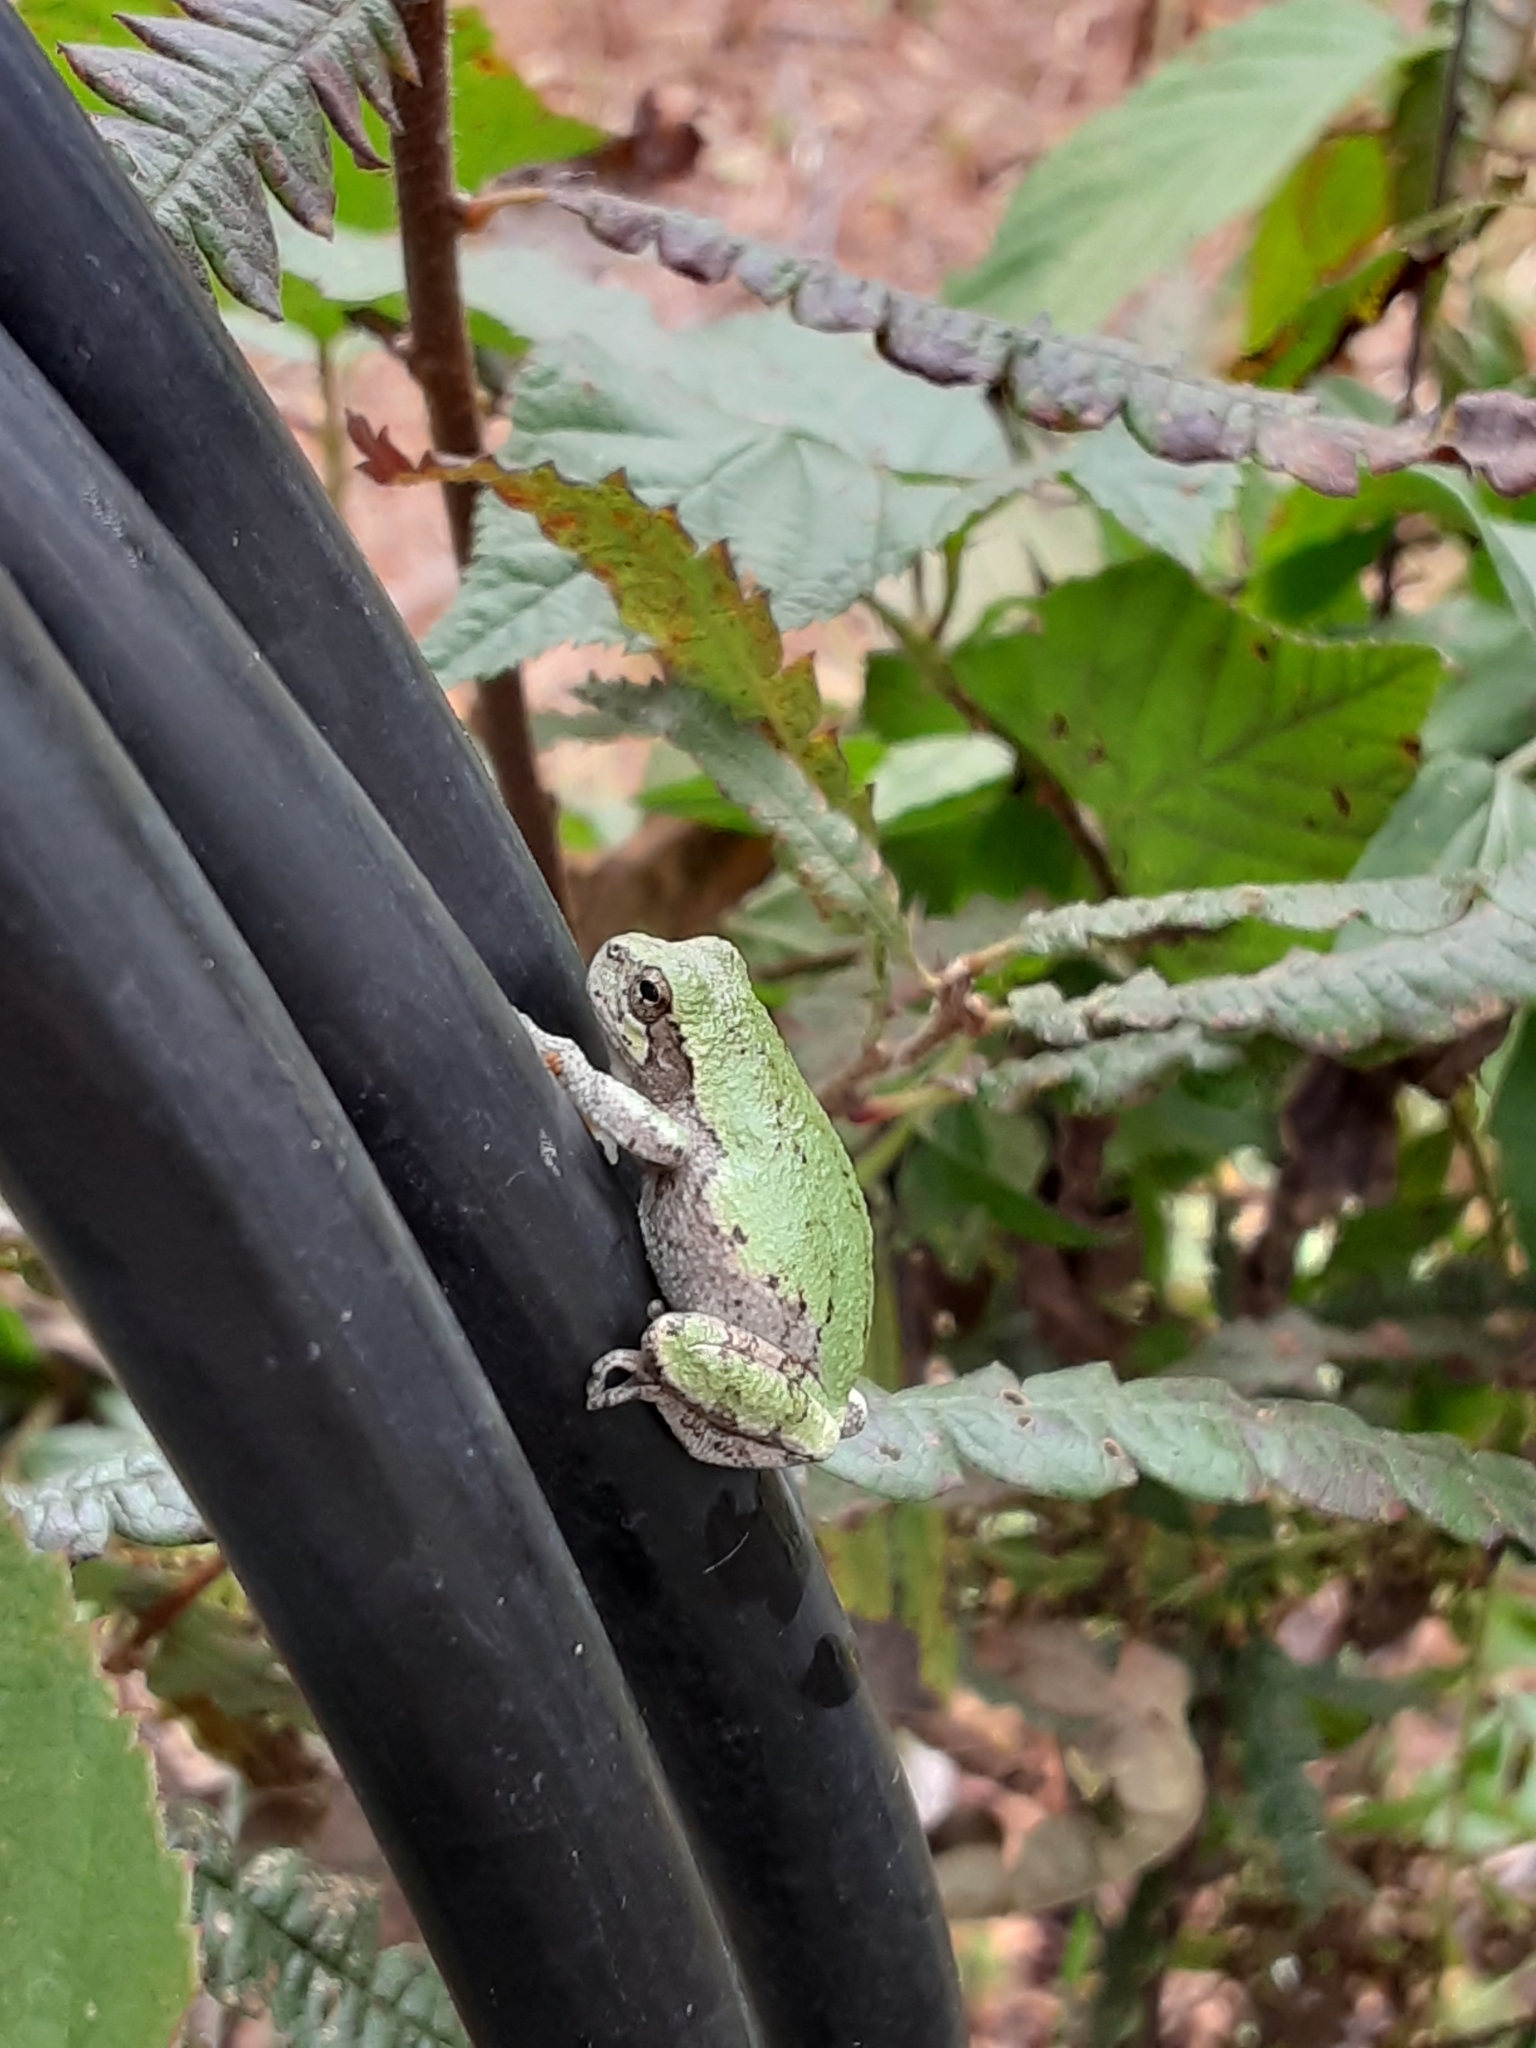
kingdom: Animalia
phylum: Chordata
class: Amphibia
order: Anura
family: Hylidae
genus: Dryophytes
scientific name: Dryophytes versicolor
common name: Gray treefrog
